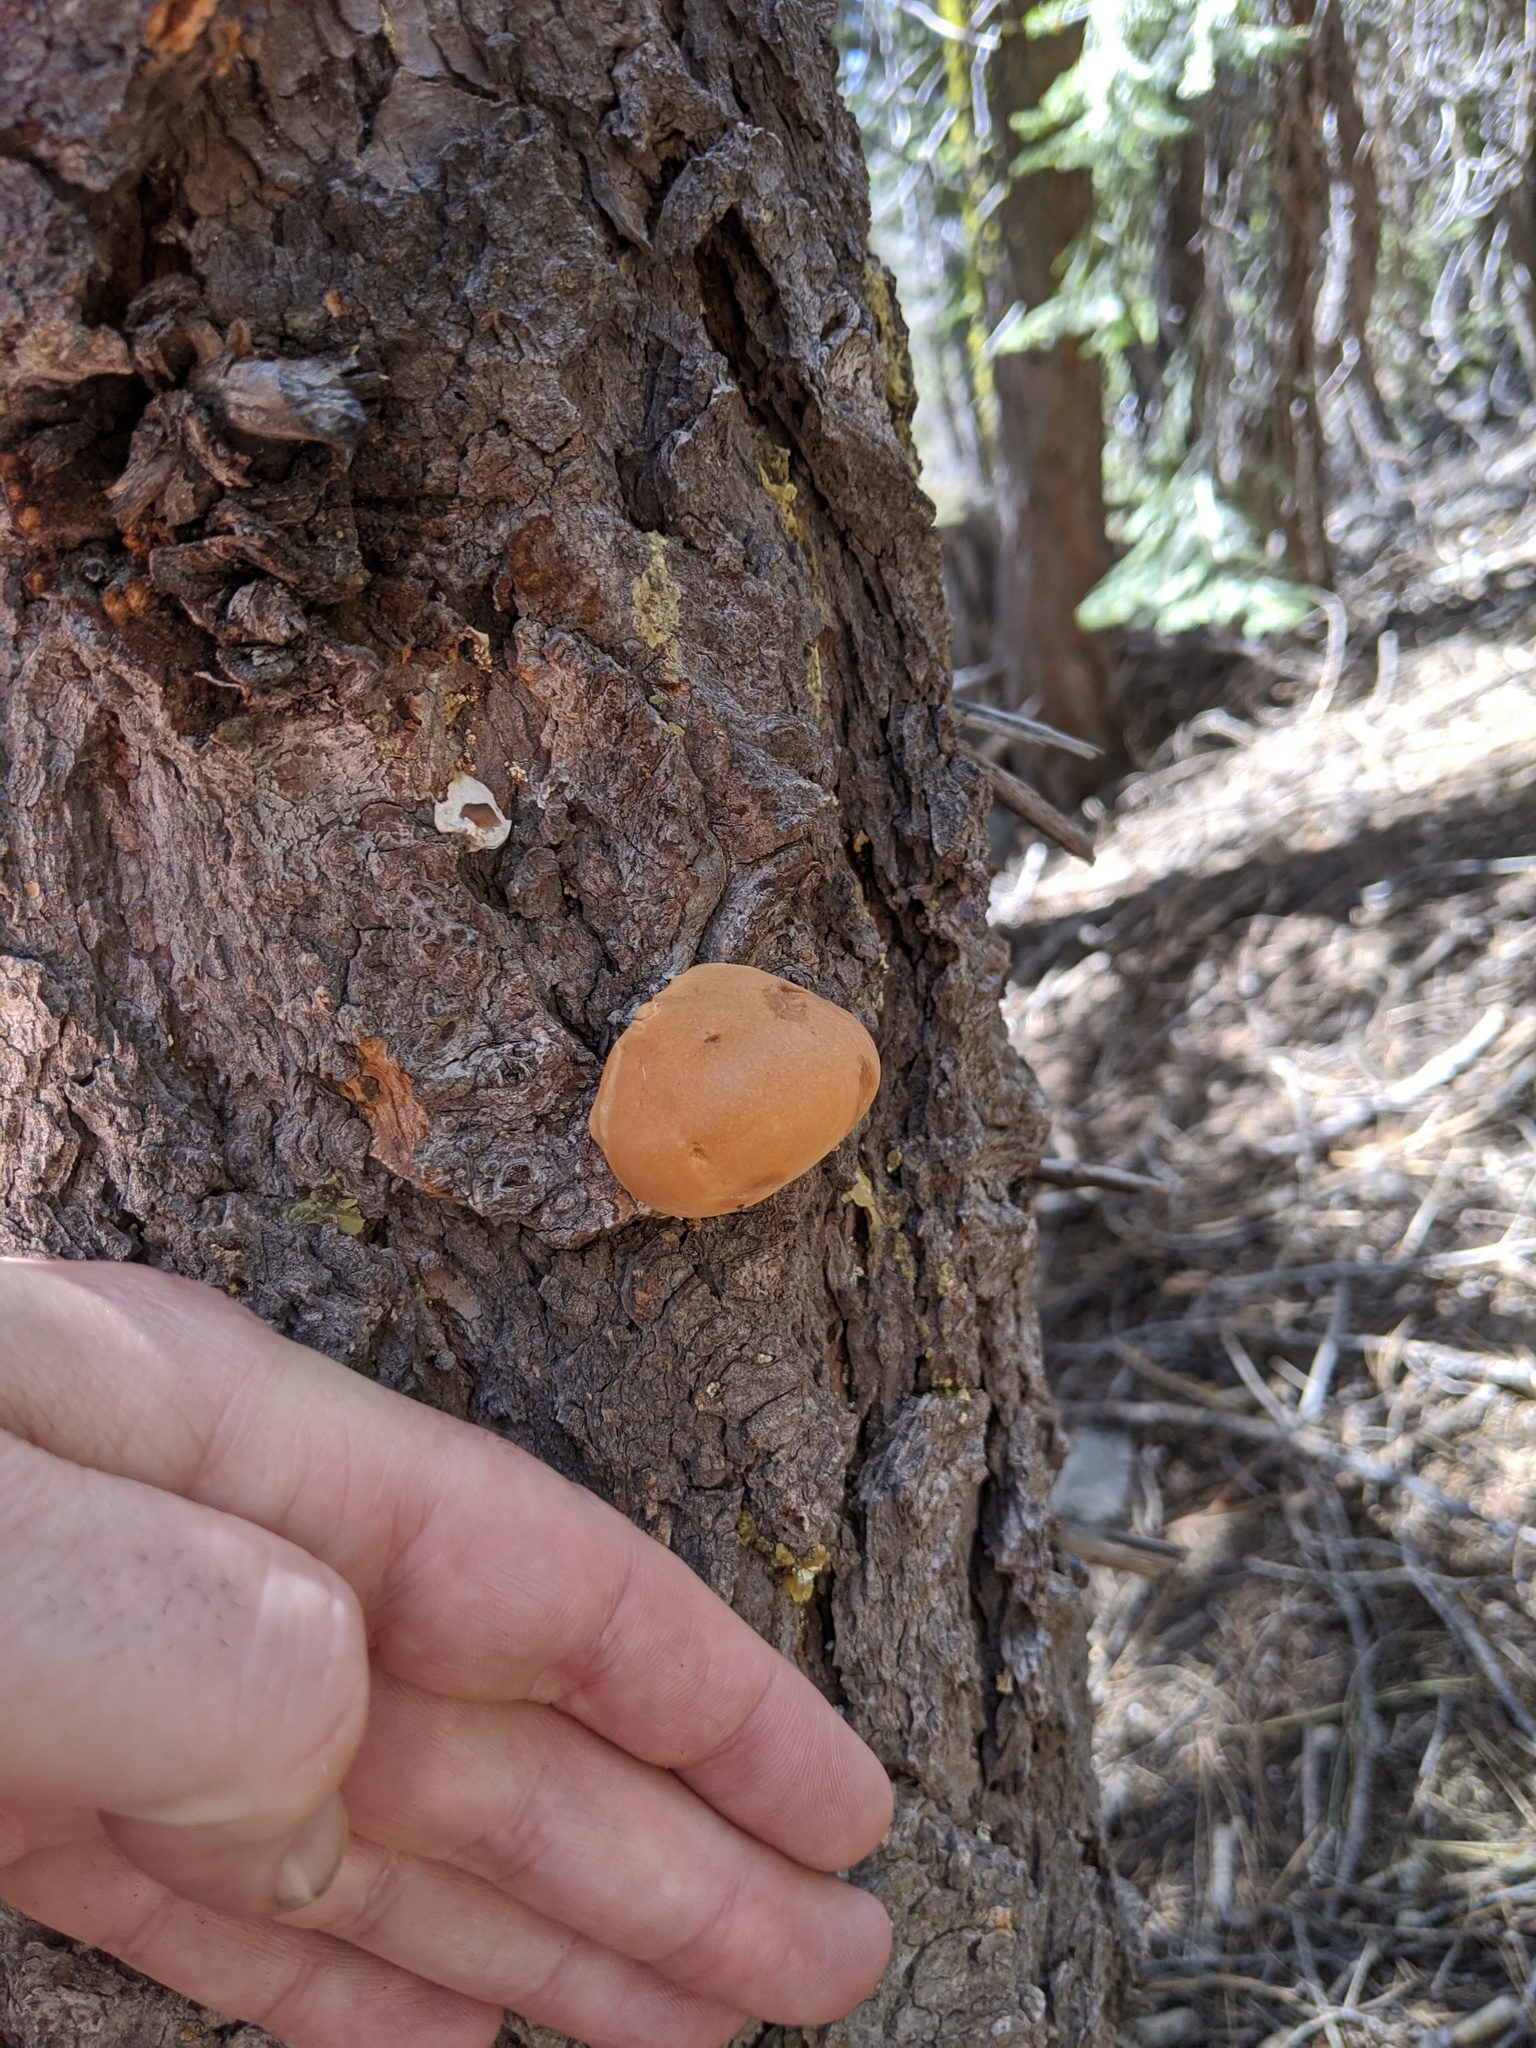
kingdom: Fungi
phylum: Basidiomycota
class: Agaricomycetes
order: Polyporales
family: Polyporaceae
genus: Cryptoporus
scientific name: Cryptoporus volvatus
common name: Veiled polypore
